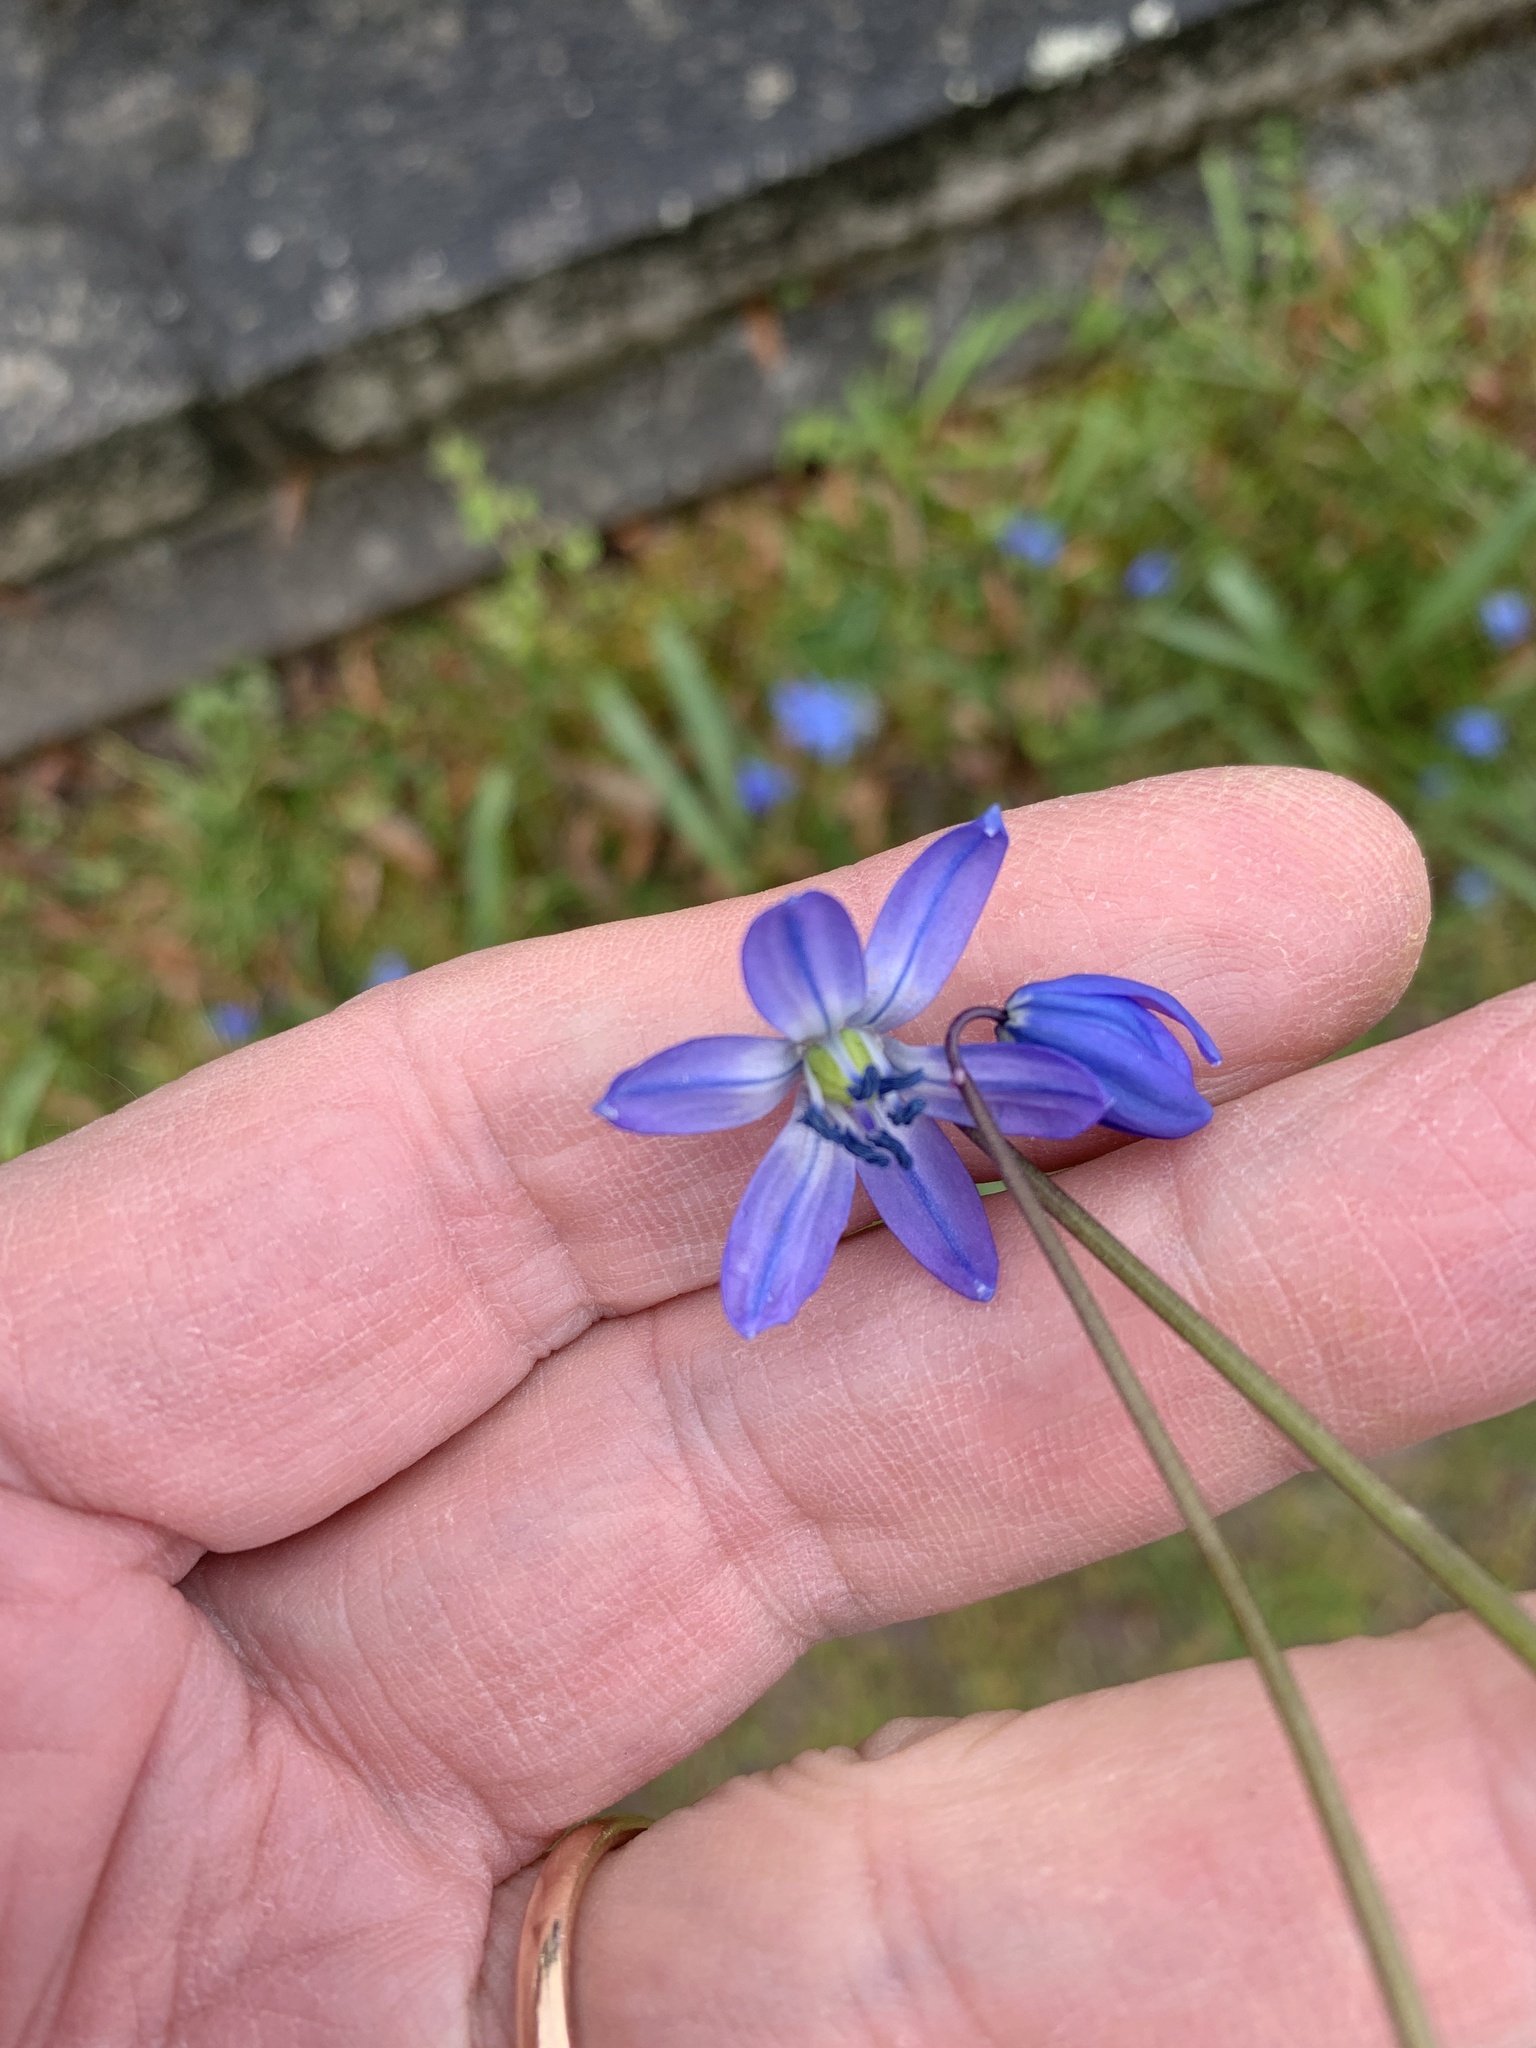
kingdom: Plantae
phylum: Tracheophyta
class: Liliopsida
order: Asparagales
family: Asparagaceae
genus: Scilla
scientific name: Scilla siberica
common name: Siberian squill
